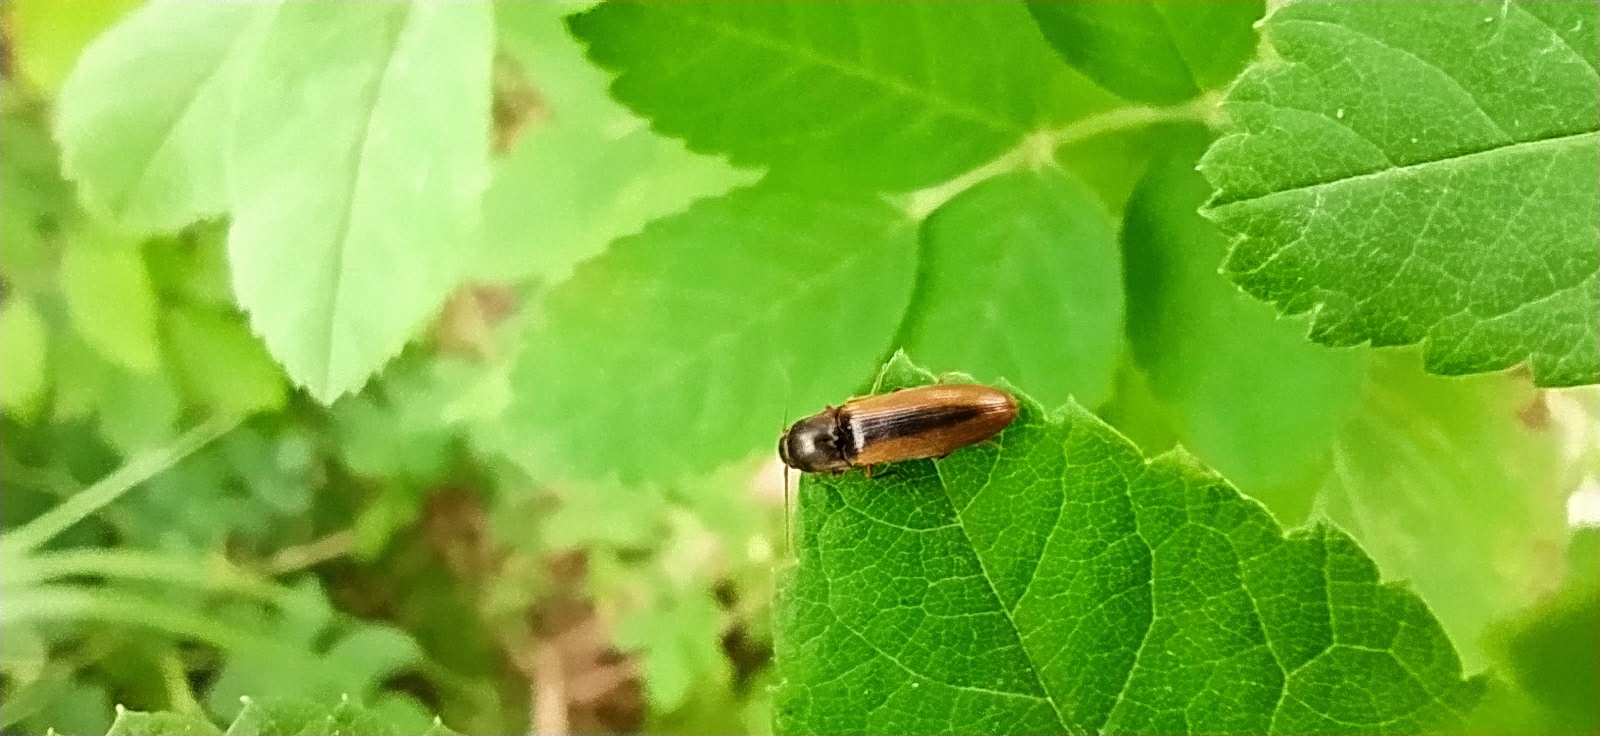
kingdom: Animalia
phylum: Arthropoda
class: Insecta
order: Coleoptera
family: Elateridae
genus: Dalopius
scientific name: Dalopius marginatus
